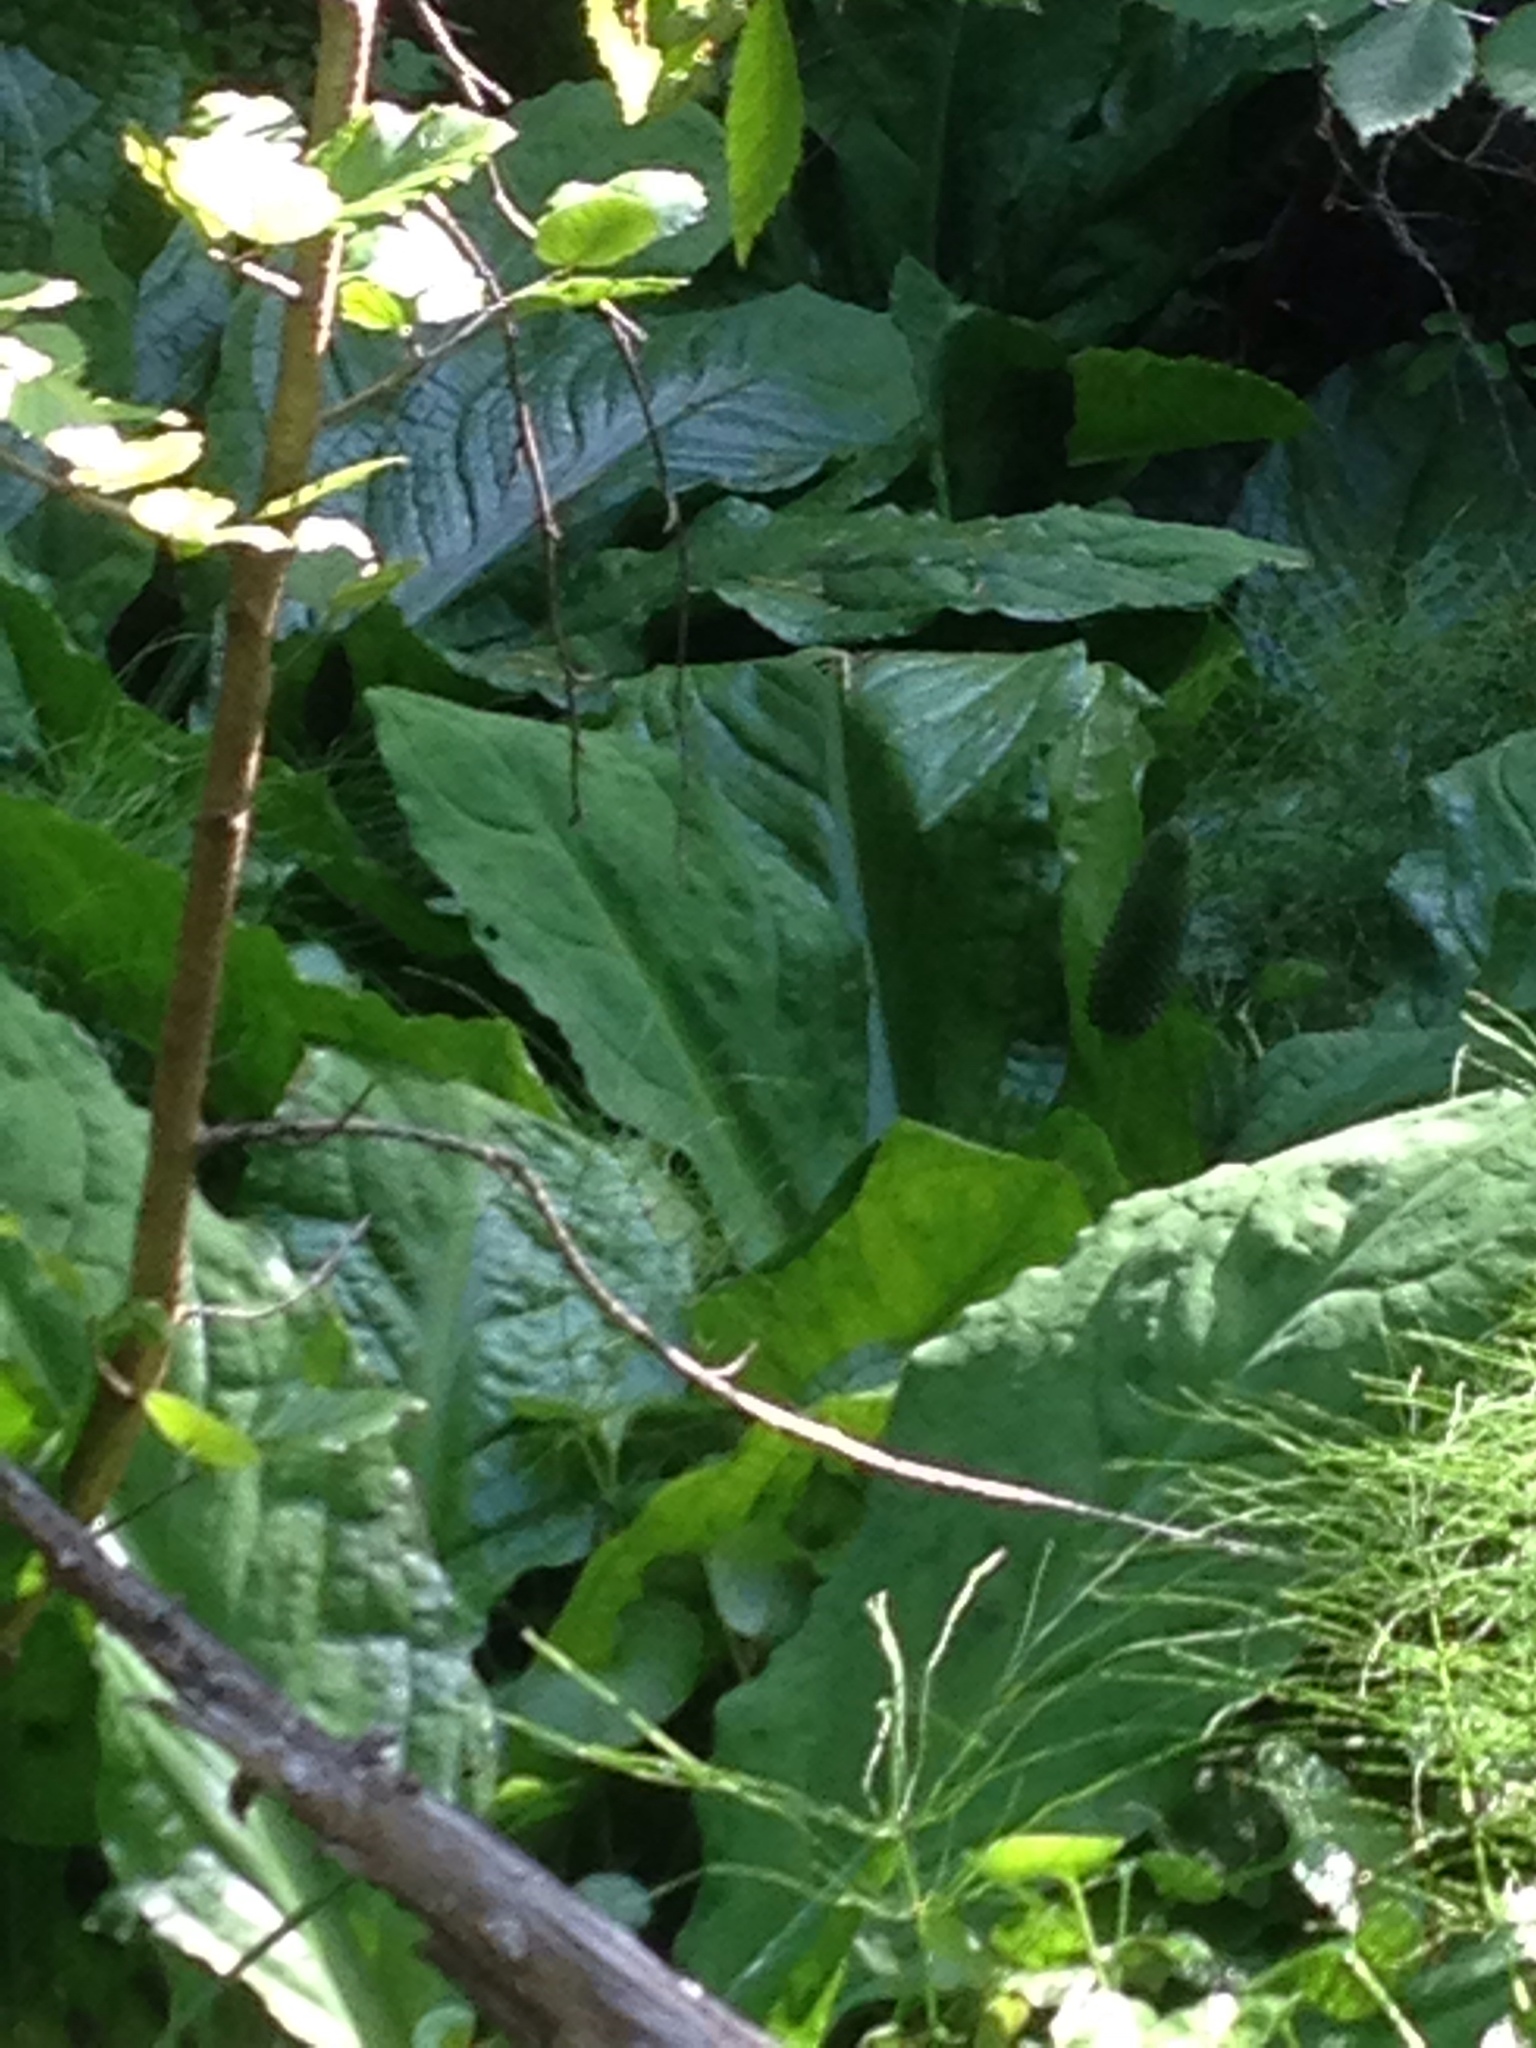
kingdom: Plantae
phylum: Tracheophyta
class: Liliopsida
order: Alismatales
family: Araceae
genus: Lysichiton
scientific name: Lysichiton americanus
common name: American skunk cabbage
